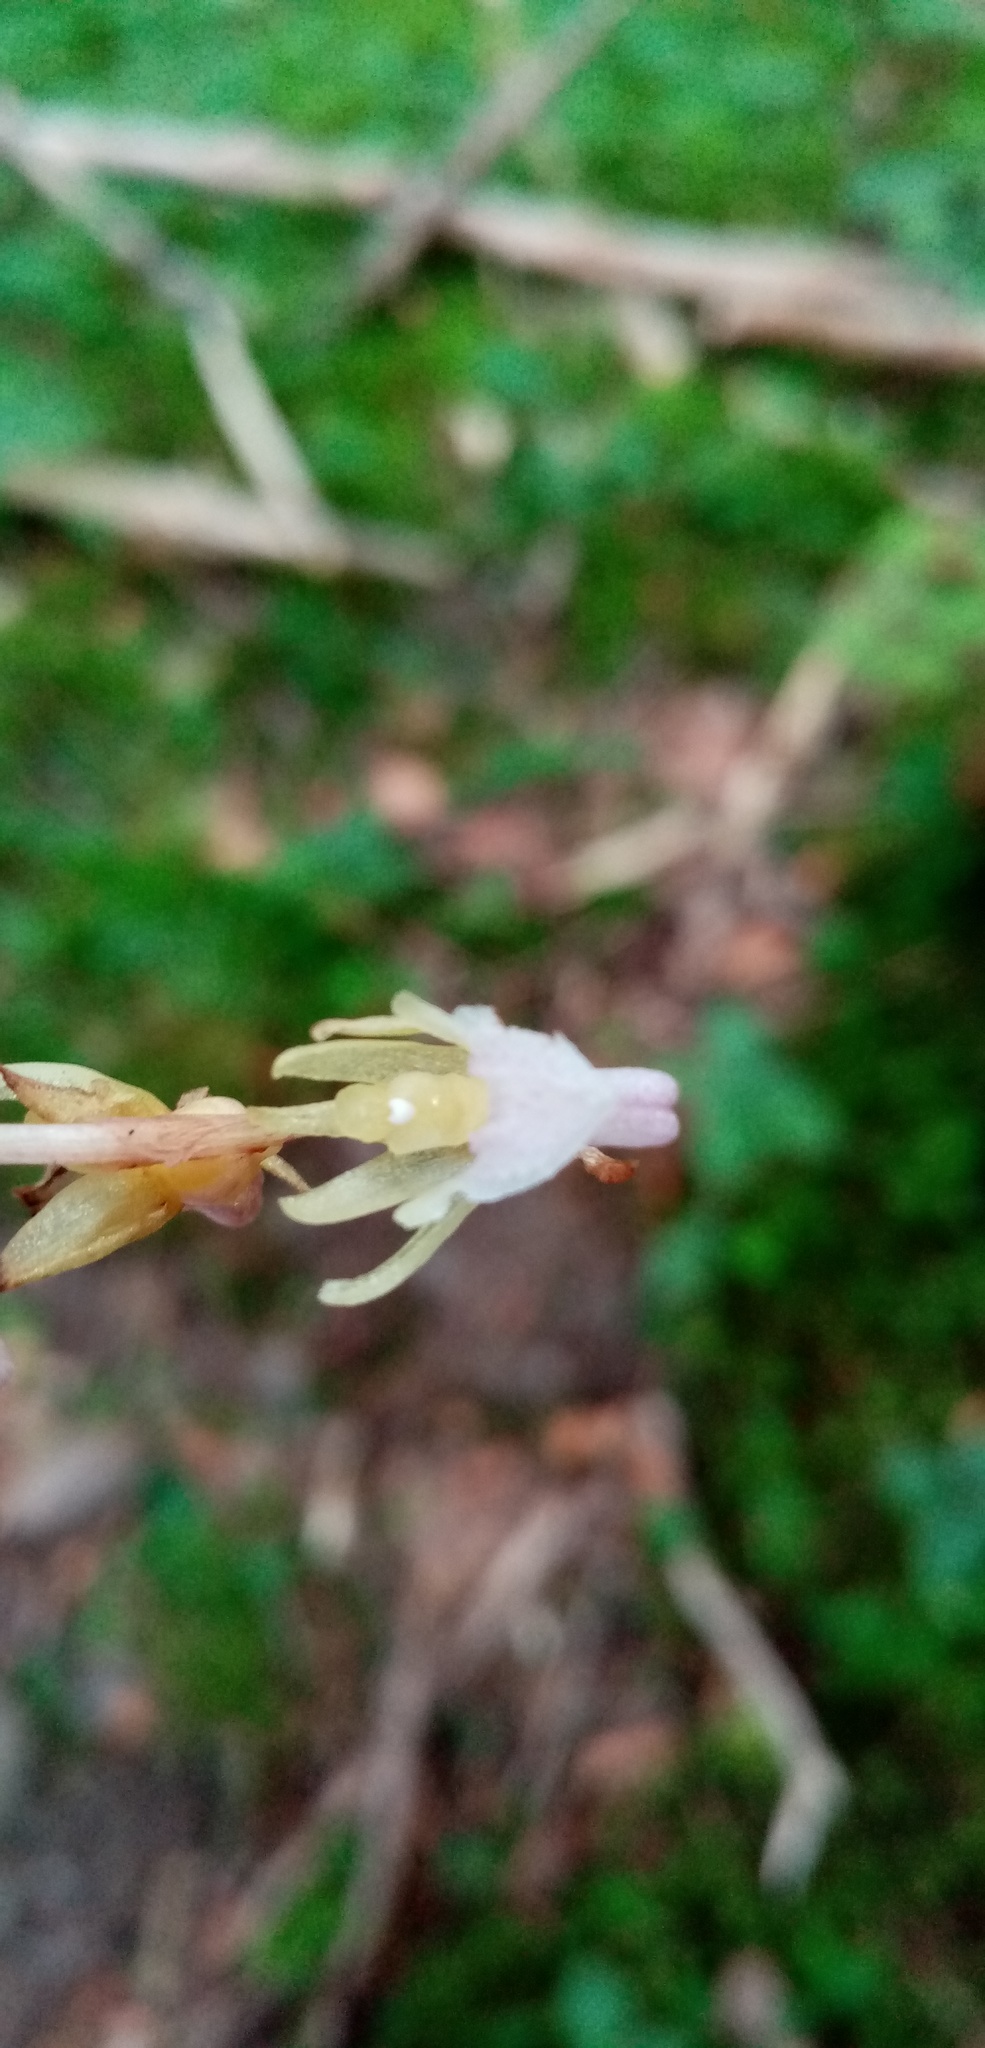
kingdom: Plantae
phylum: Tracheophyta
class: Liliopsida
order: Asparagales
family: Orchidaceae
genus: Epipogium
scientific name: Epipogium aphyllum
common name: Ghost orchid
